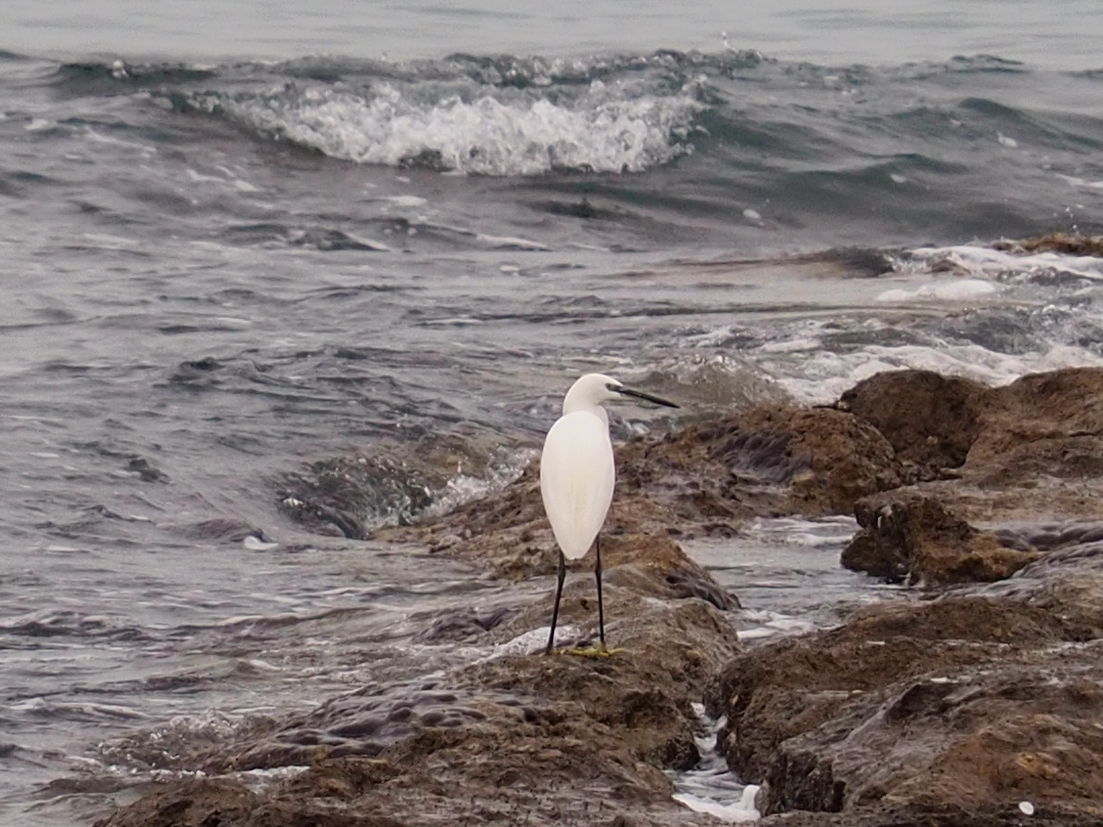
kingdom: Animalia
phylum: Chordata
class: Aves
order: Pelecaniformes
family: Ardeidae
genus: Egretta
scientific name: Egretta garzetta
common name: Little egret
